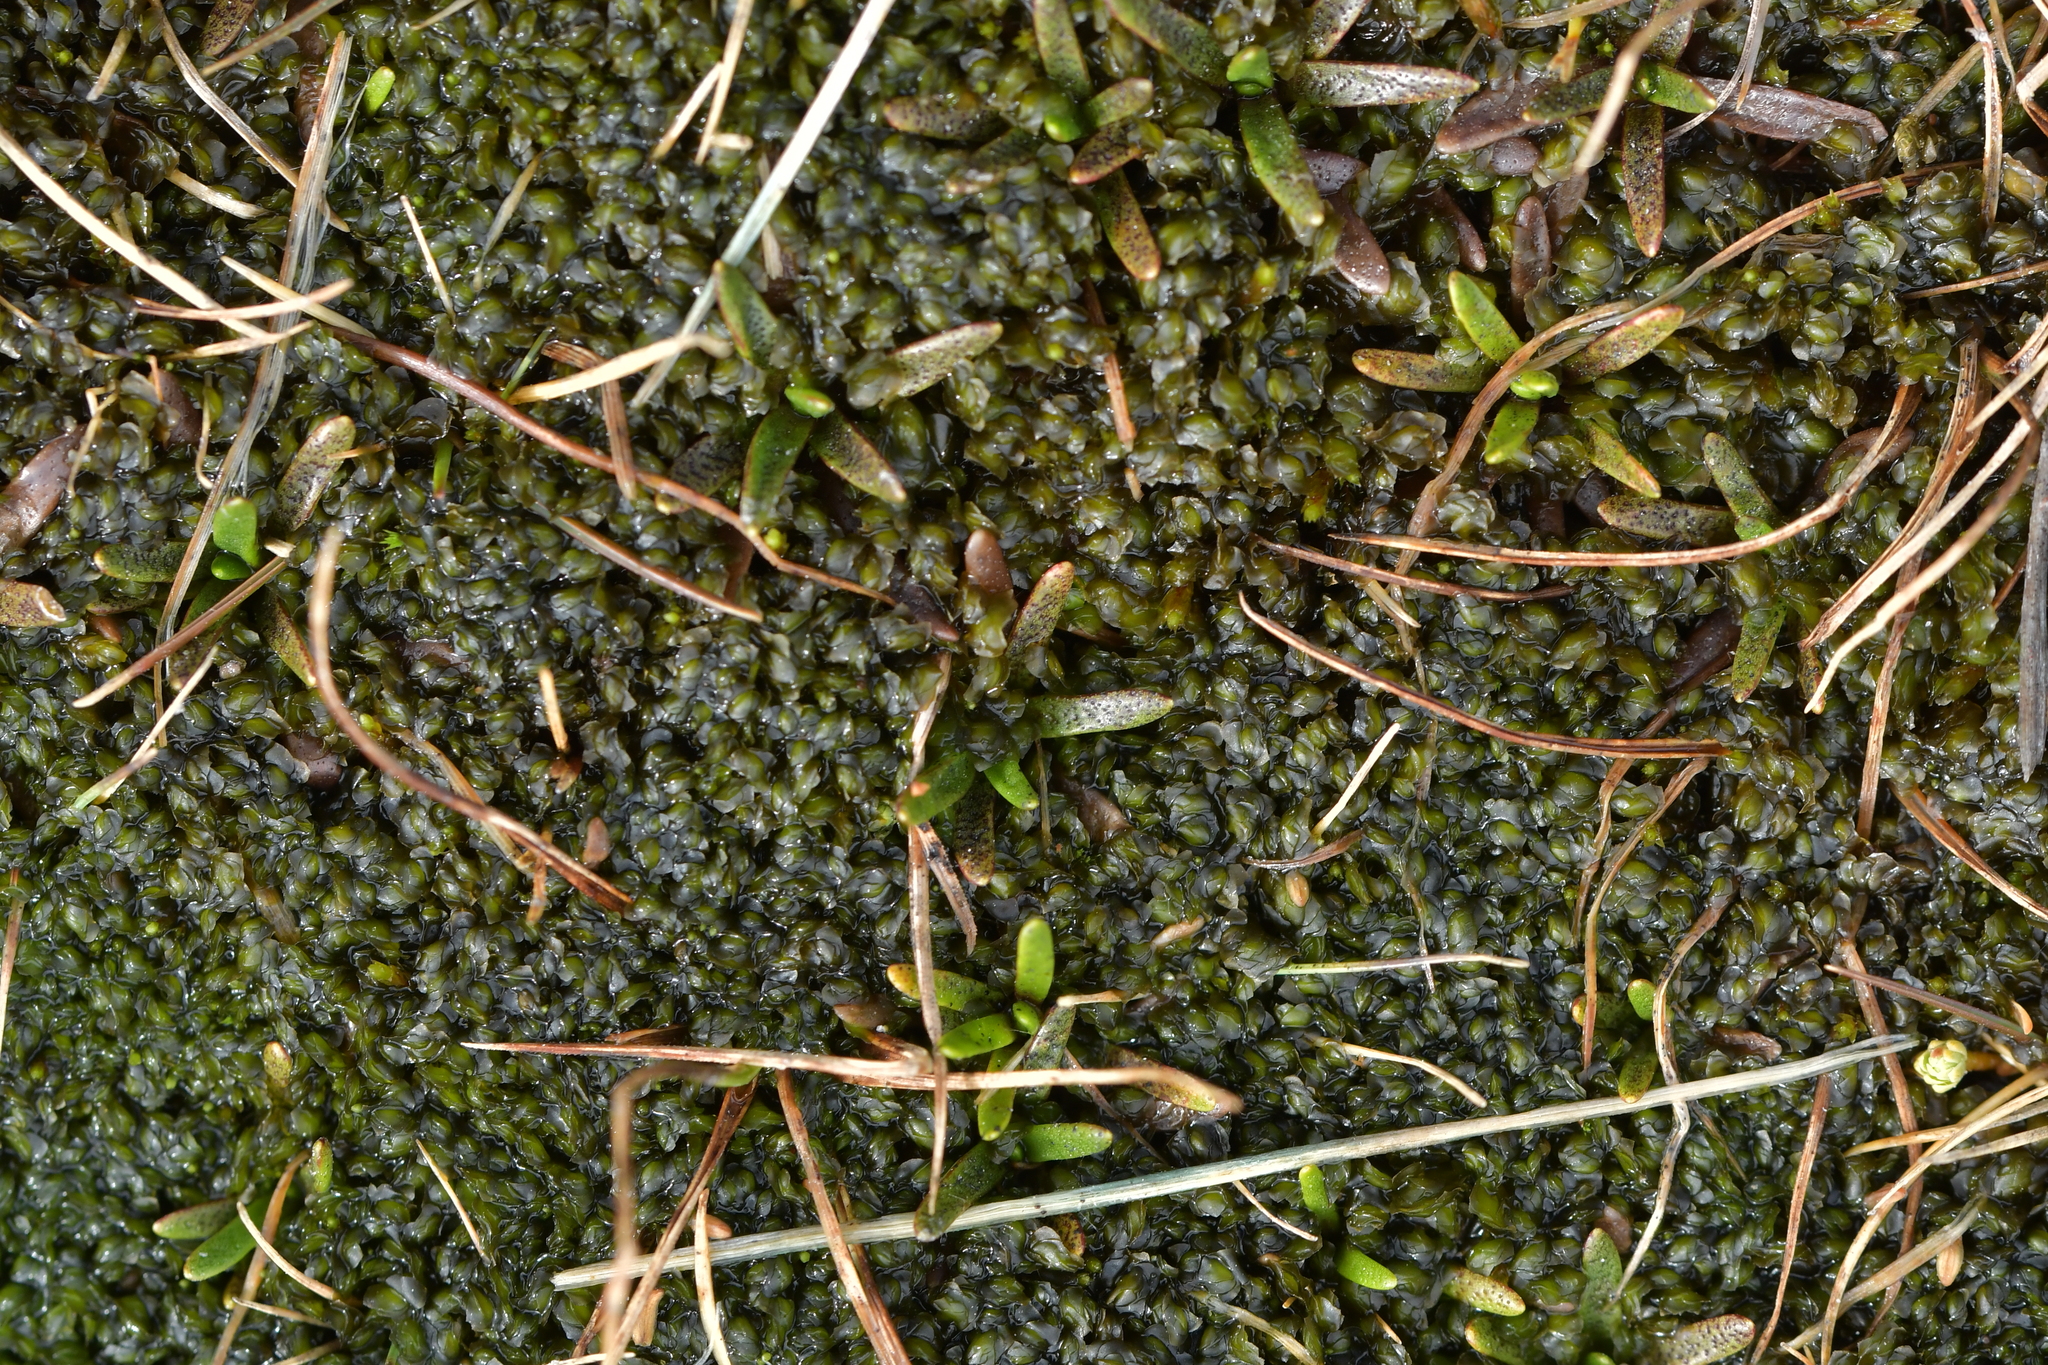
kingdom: Plantae
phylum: Tracheophyta
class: Magnoliopsida
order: Asterales
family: Asteraceae
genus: Abrotanella
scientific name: Abrotanella caespitosa
